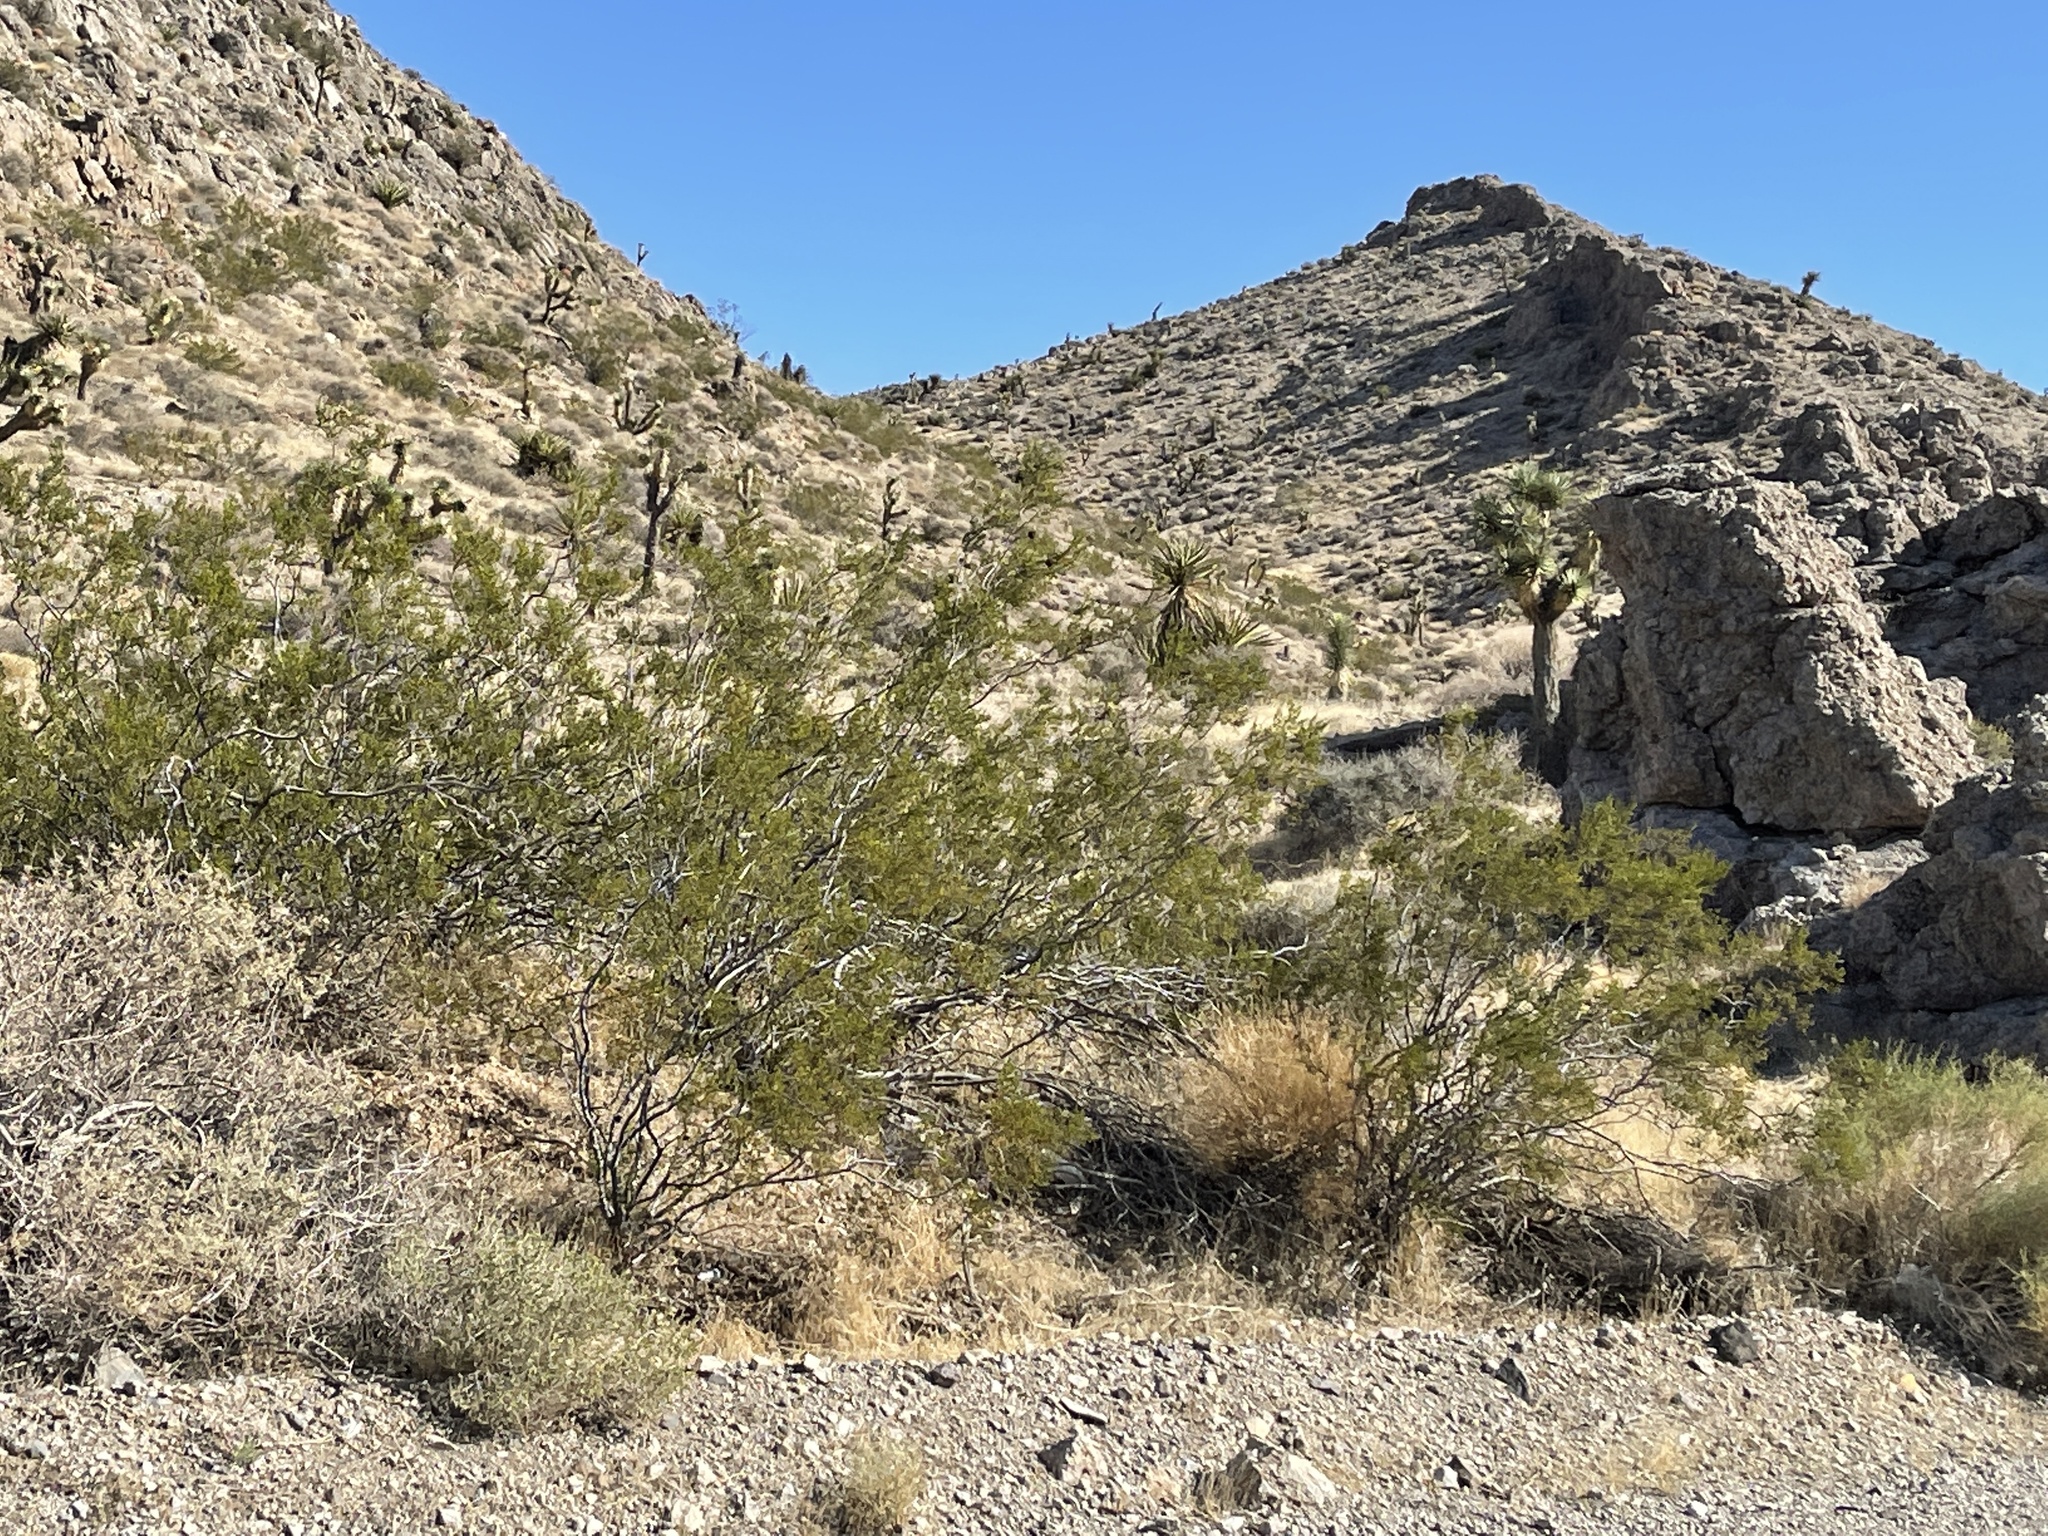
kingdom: Plantae
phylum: Tracheophyta
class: Magnoliopsida
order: Zygophyllales
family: Zygophyllaceae
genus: Larrea
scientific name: Larrea tridentata
